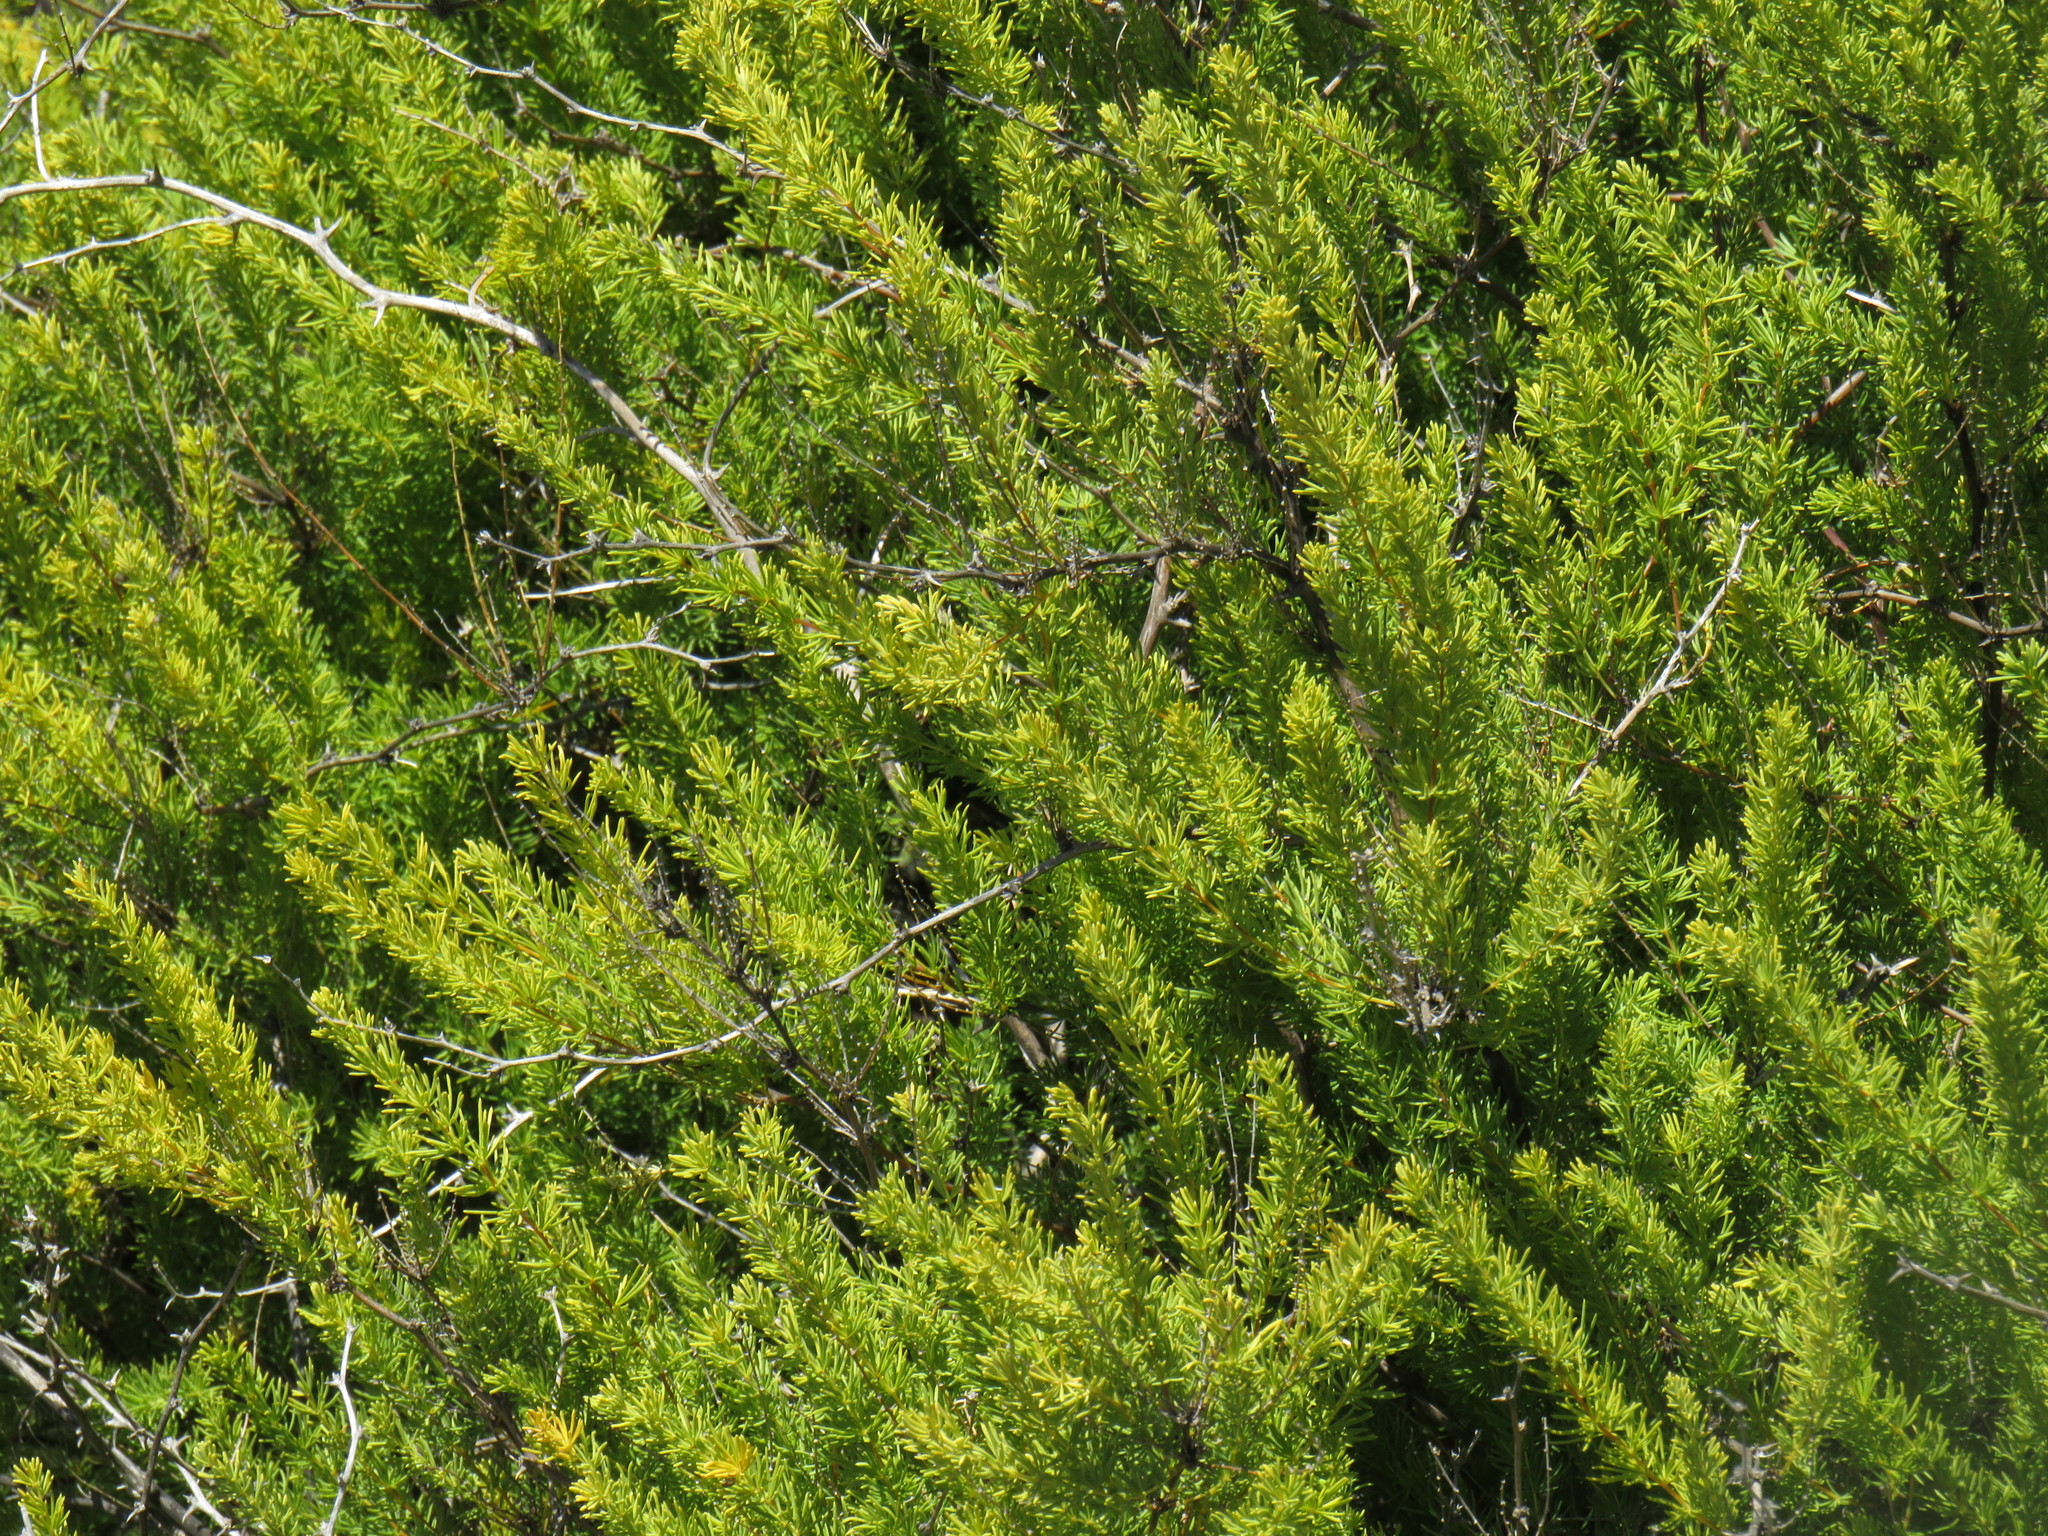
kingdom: Plantae
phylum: Tracheophyta
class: Liliopsida
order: Asparagales
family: Asparagaceae
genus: Asparagus
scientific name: Asparagus rubicundus
